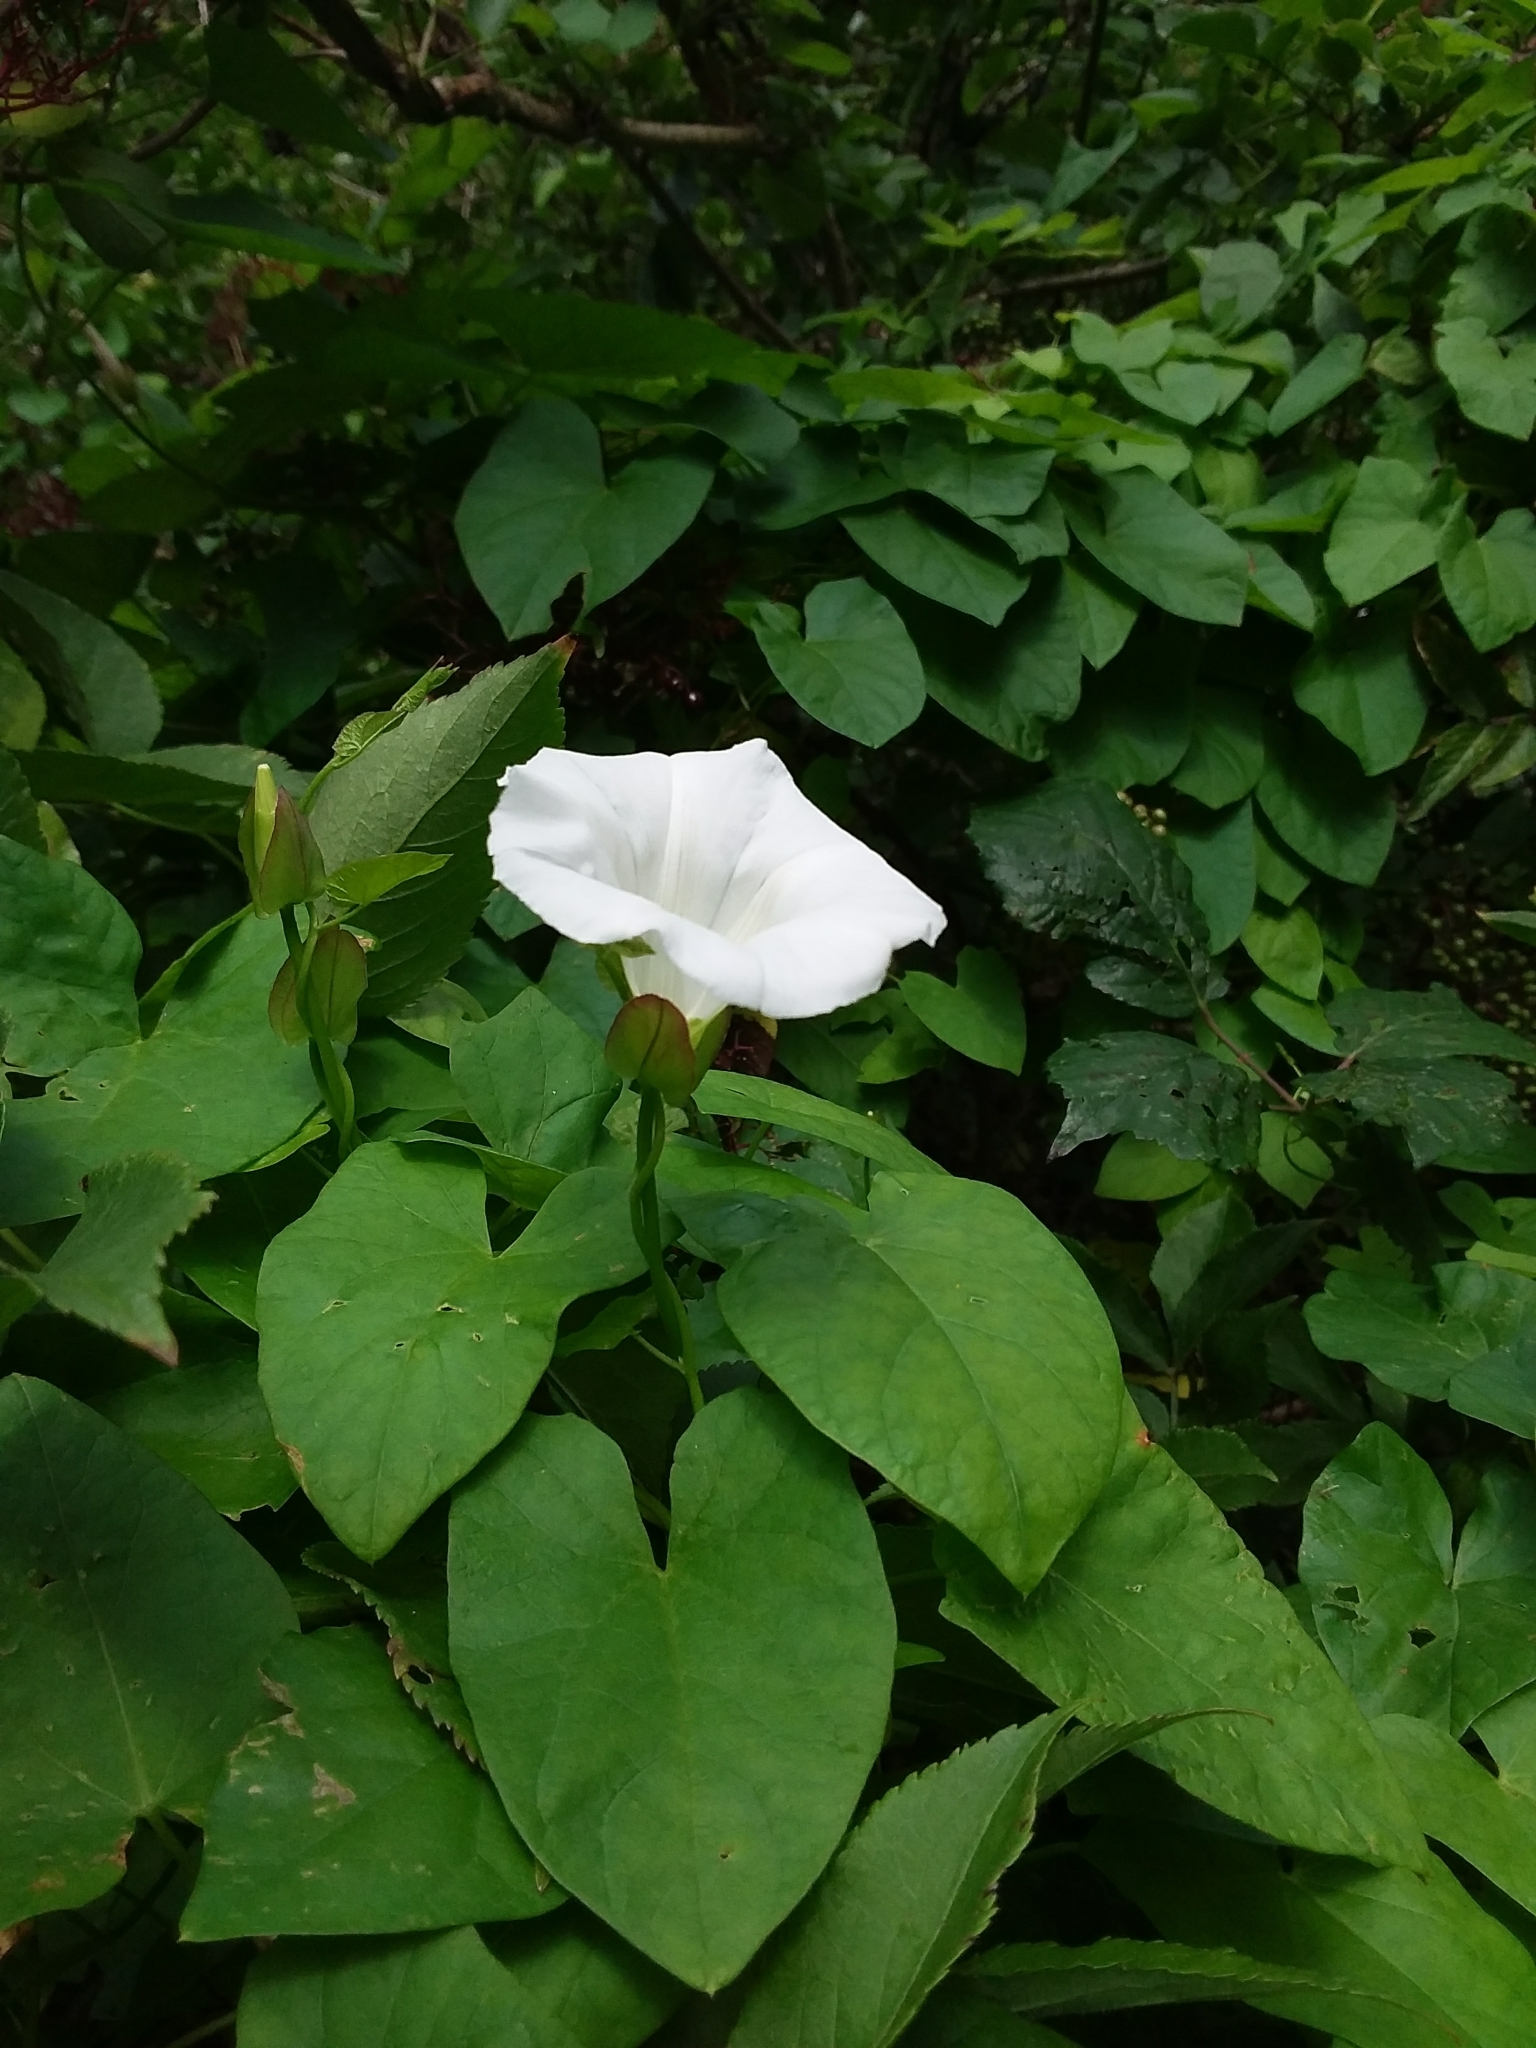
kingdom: Plantae
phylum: Tracheophyta
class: Magnoliopsida
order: Solanales
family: Convolvulaceae
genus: Calystegia
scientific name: Calystegia sepium
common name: Hedge bindweed
